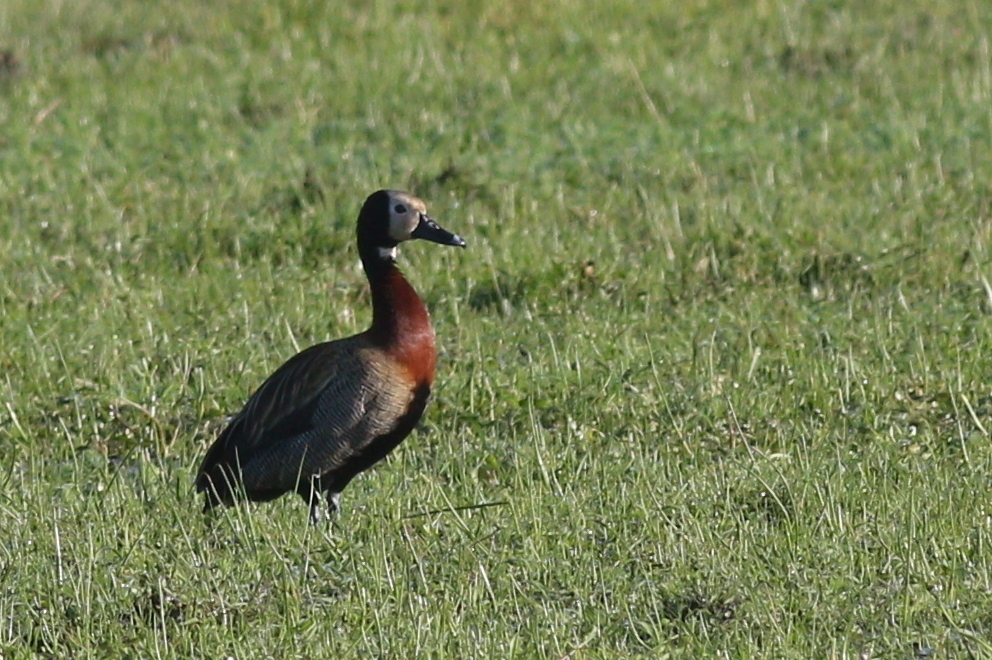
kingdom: Animalia
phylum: Chordata
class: Aves
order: Anseriformes
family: Anatidae
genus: Dendrocygna
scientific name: Dendrocygna viduata
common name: White-faced whistling duck
